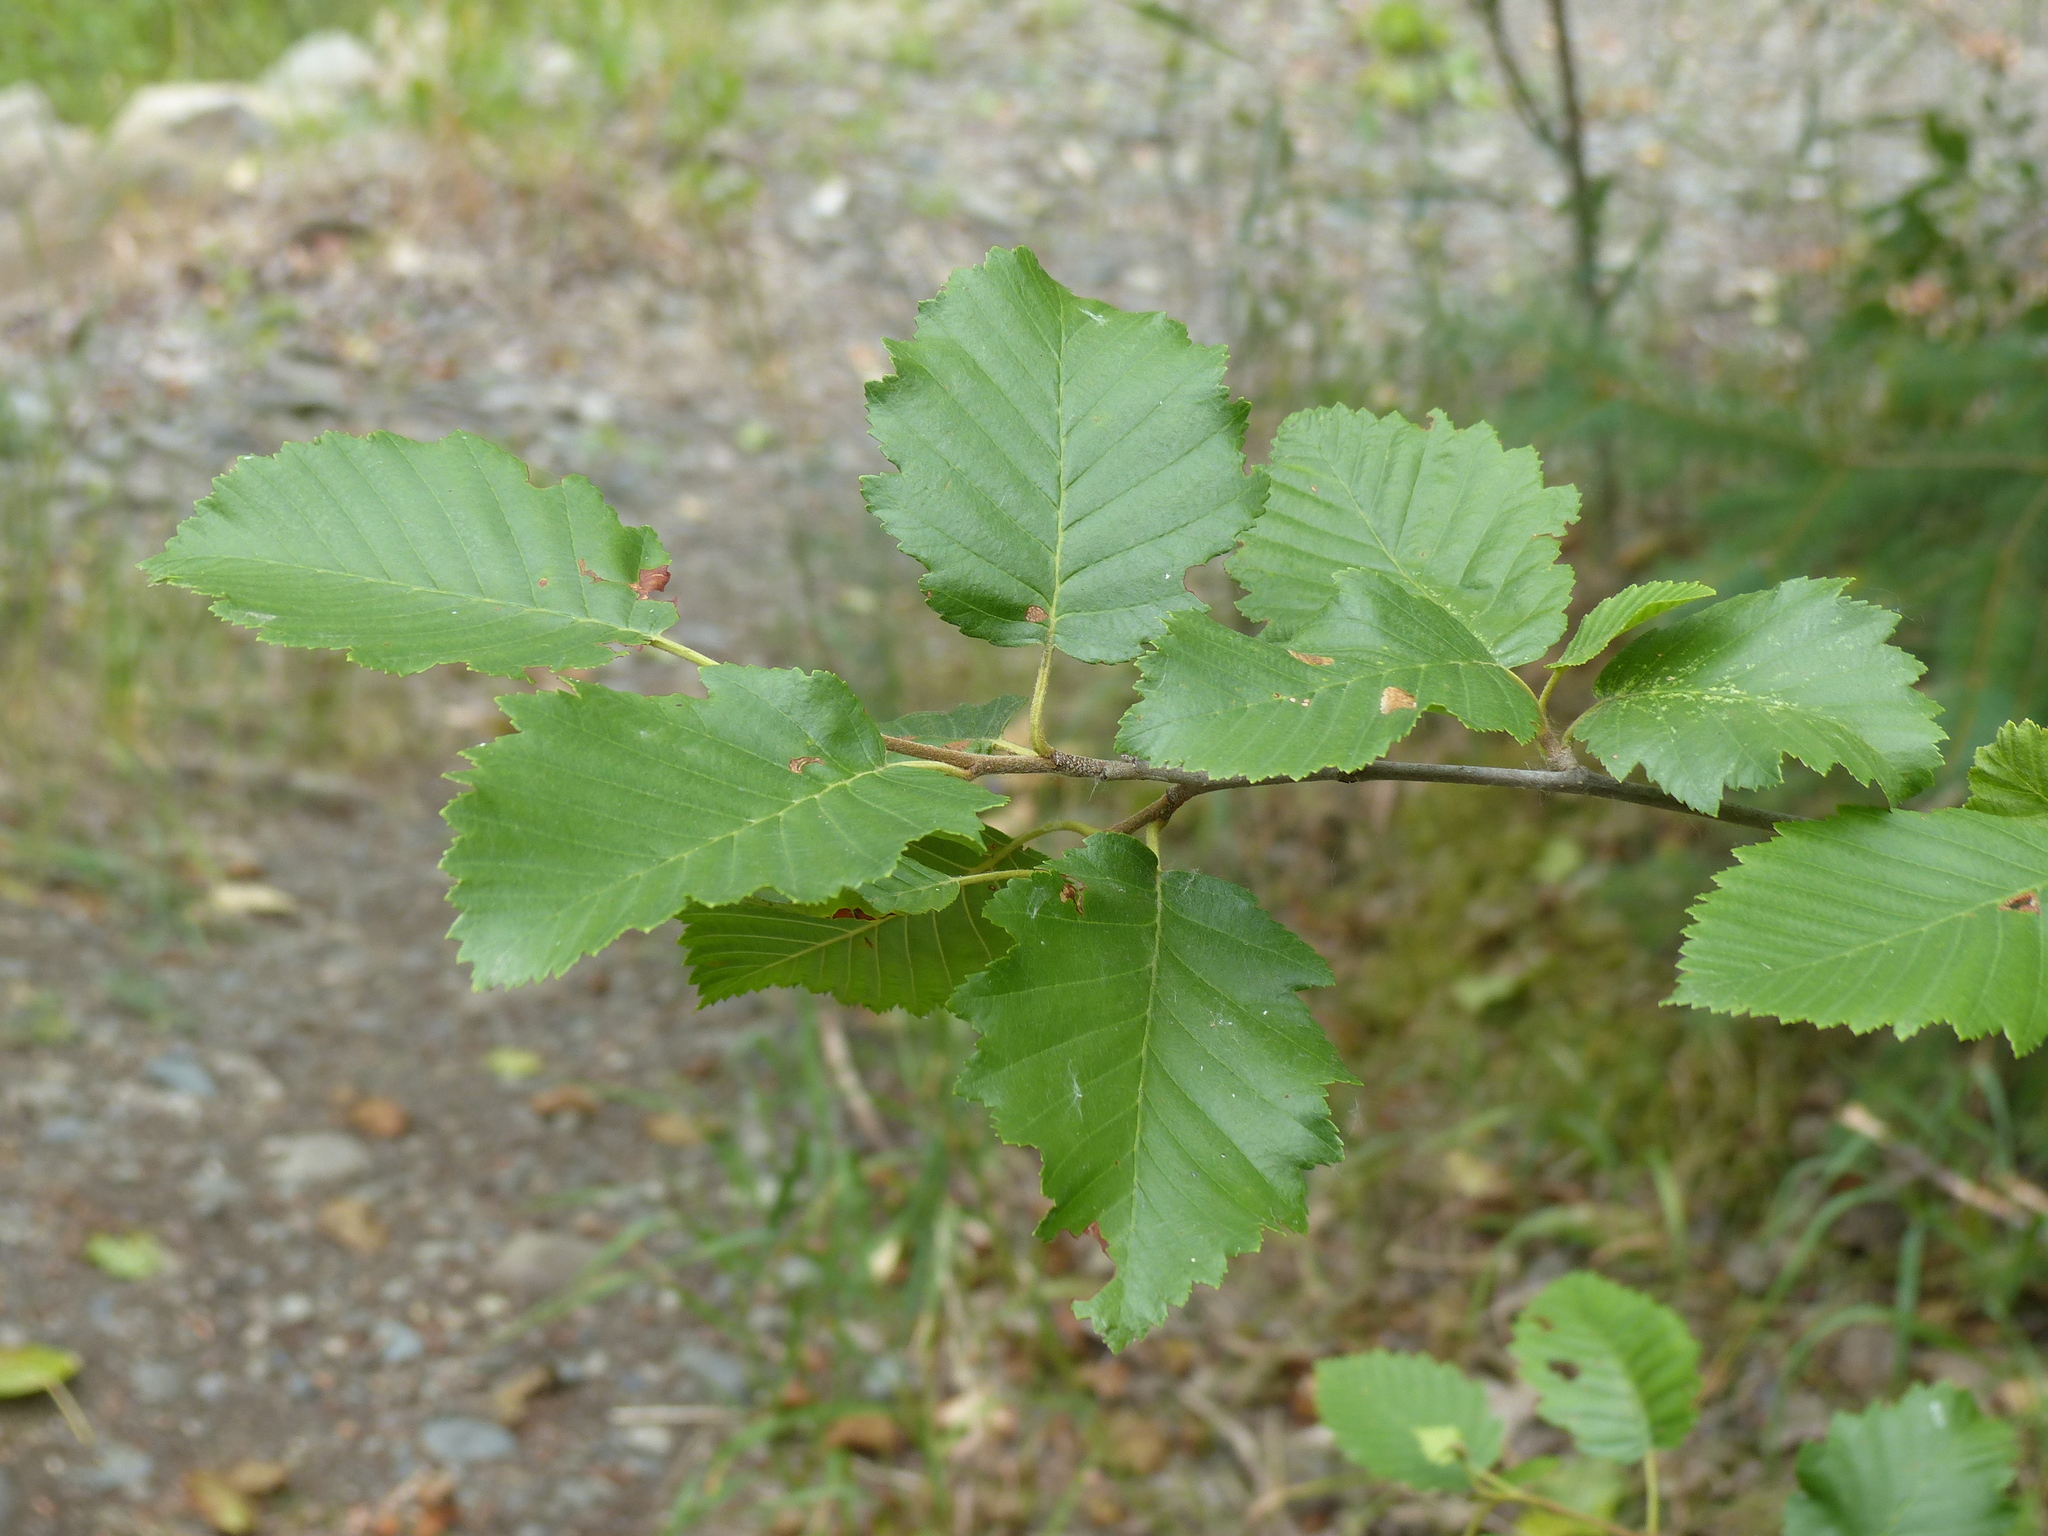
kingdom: Plantae
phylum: Tracheophyta
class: Magnoliopsida
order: Fagales
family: Betulaceae
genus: Alnus
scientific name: Alnus incana
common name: Grey alder
